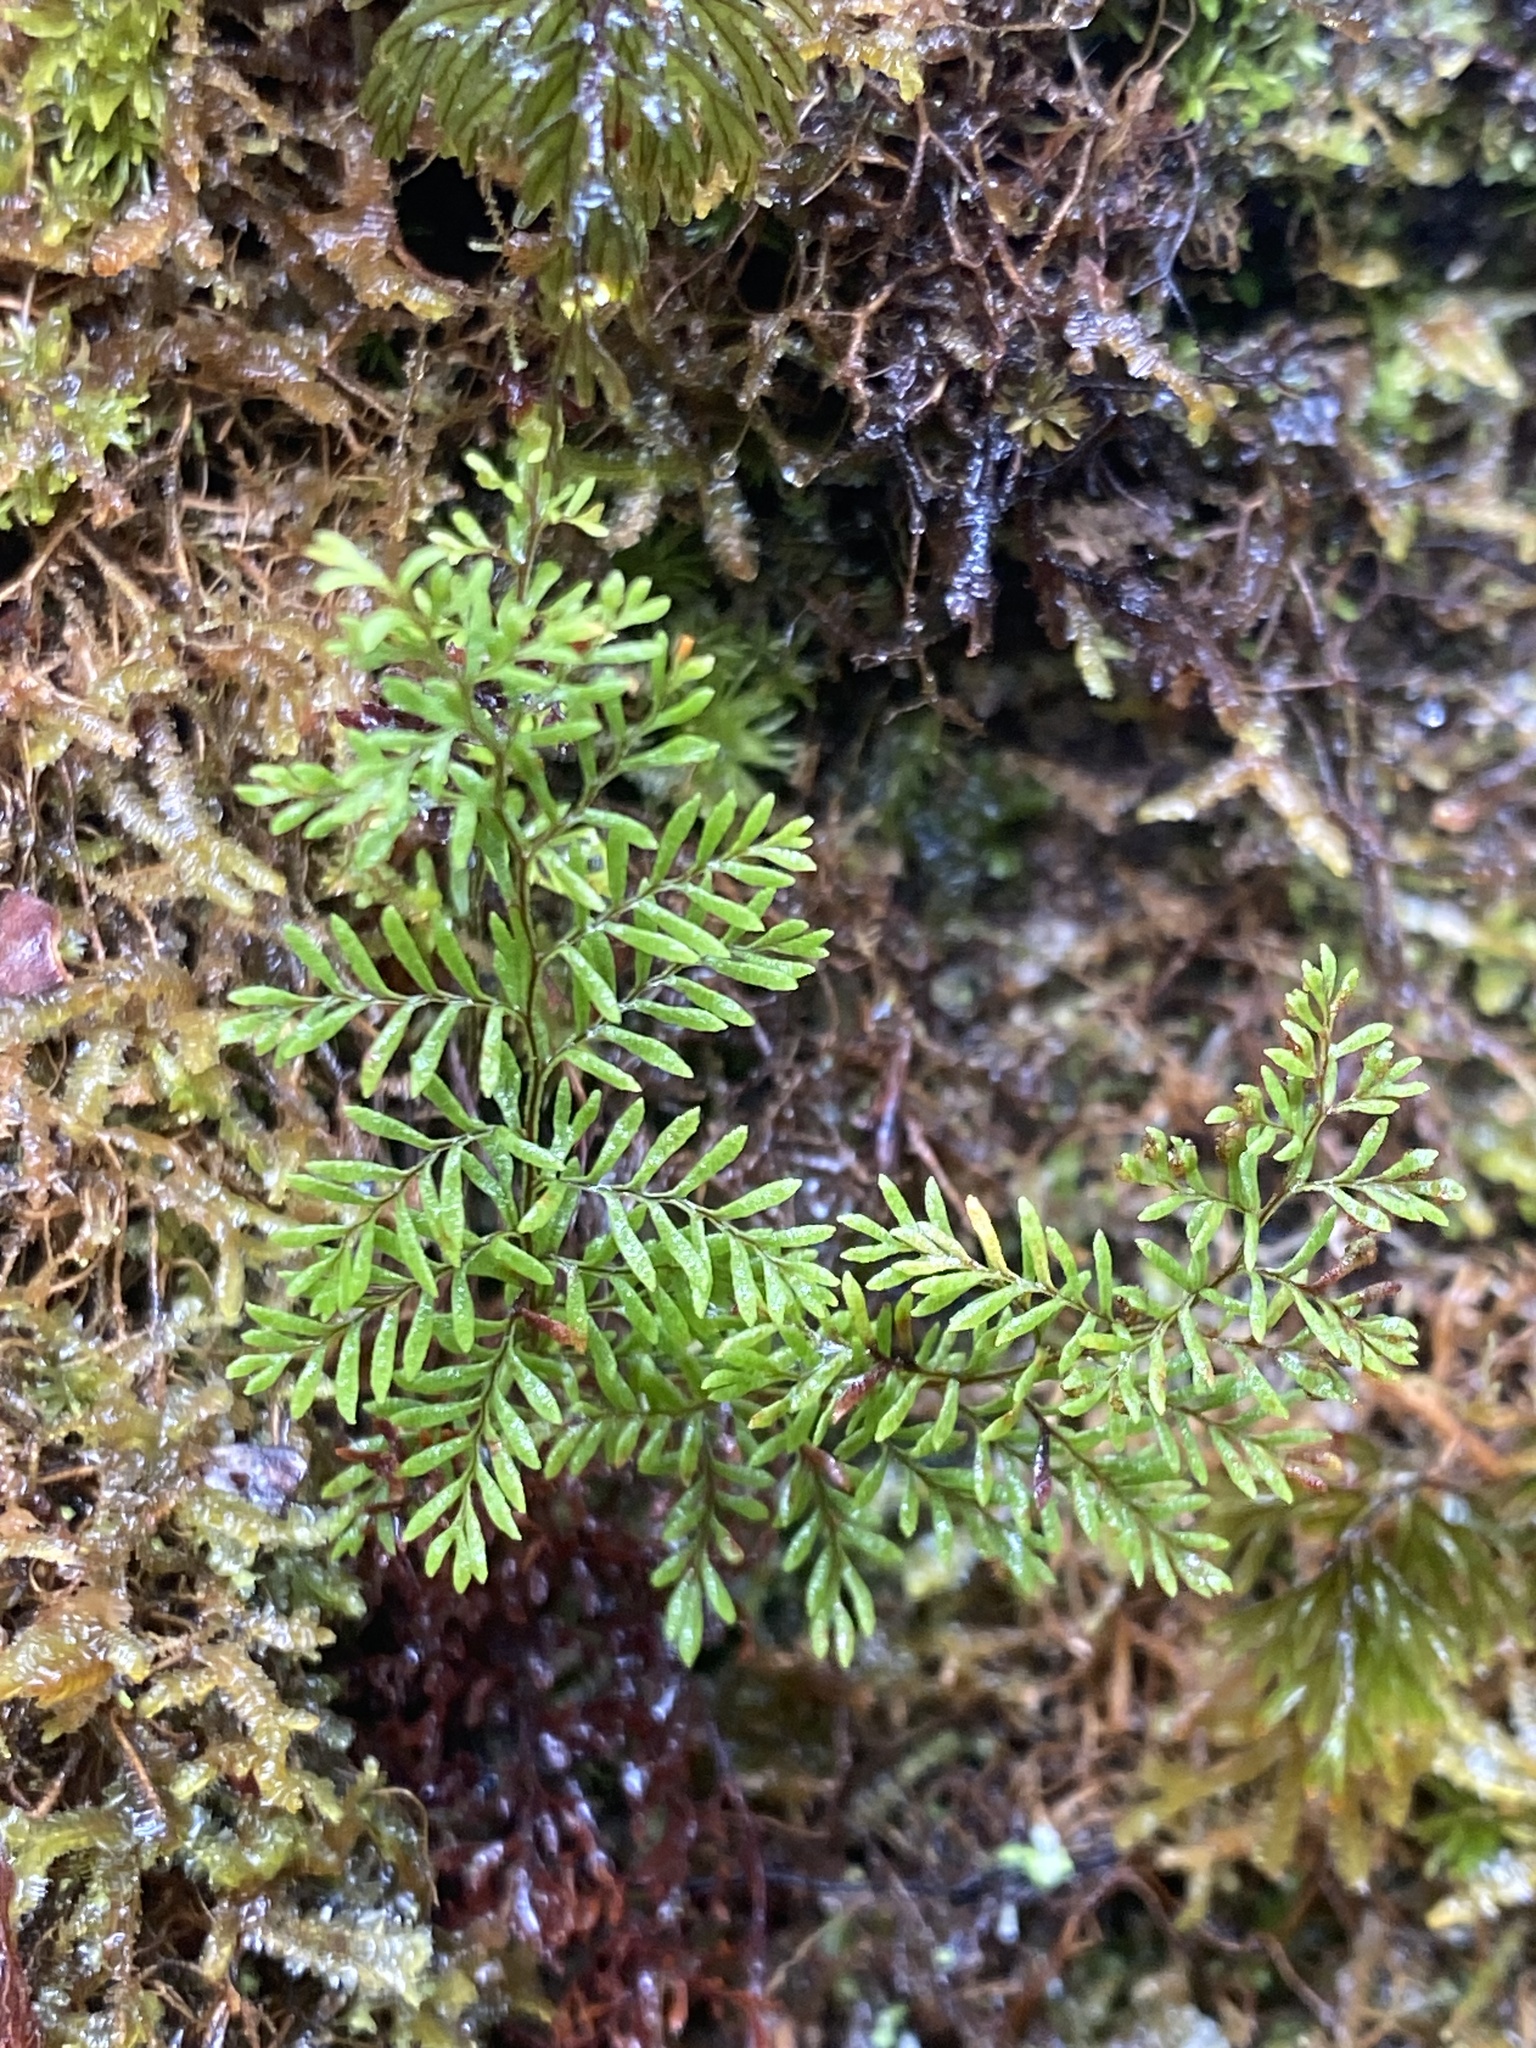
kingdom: Plantae
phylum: Tracheophyta
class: Polypodiopsida
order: Polypodiales
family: Polypodiaceae
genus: Adenophorus
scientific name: Adenophorus abietinus
